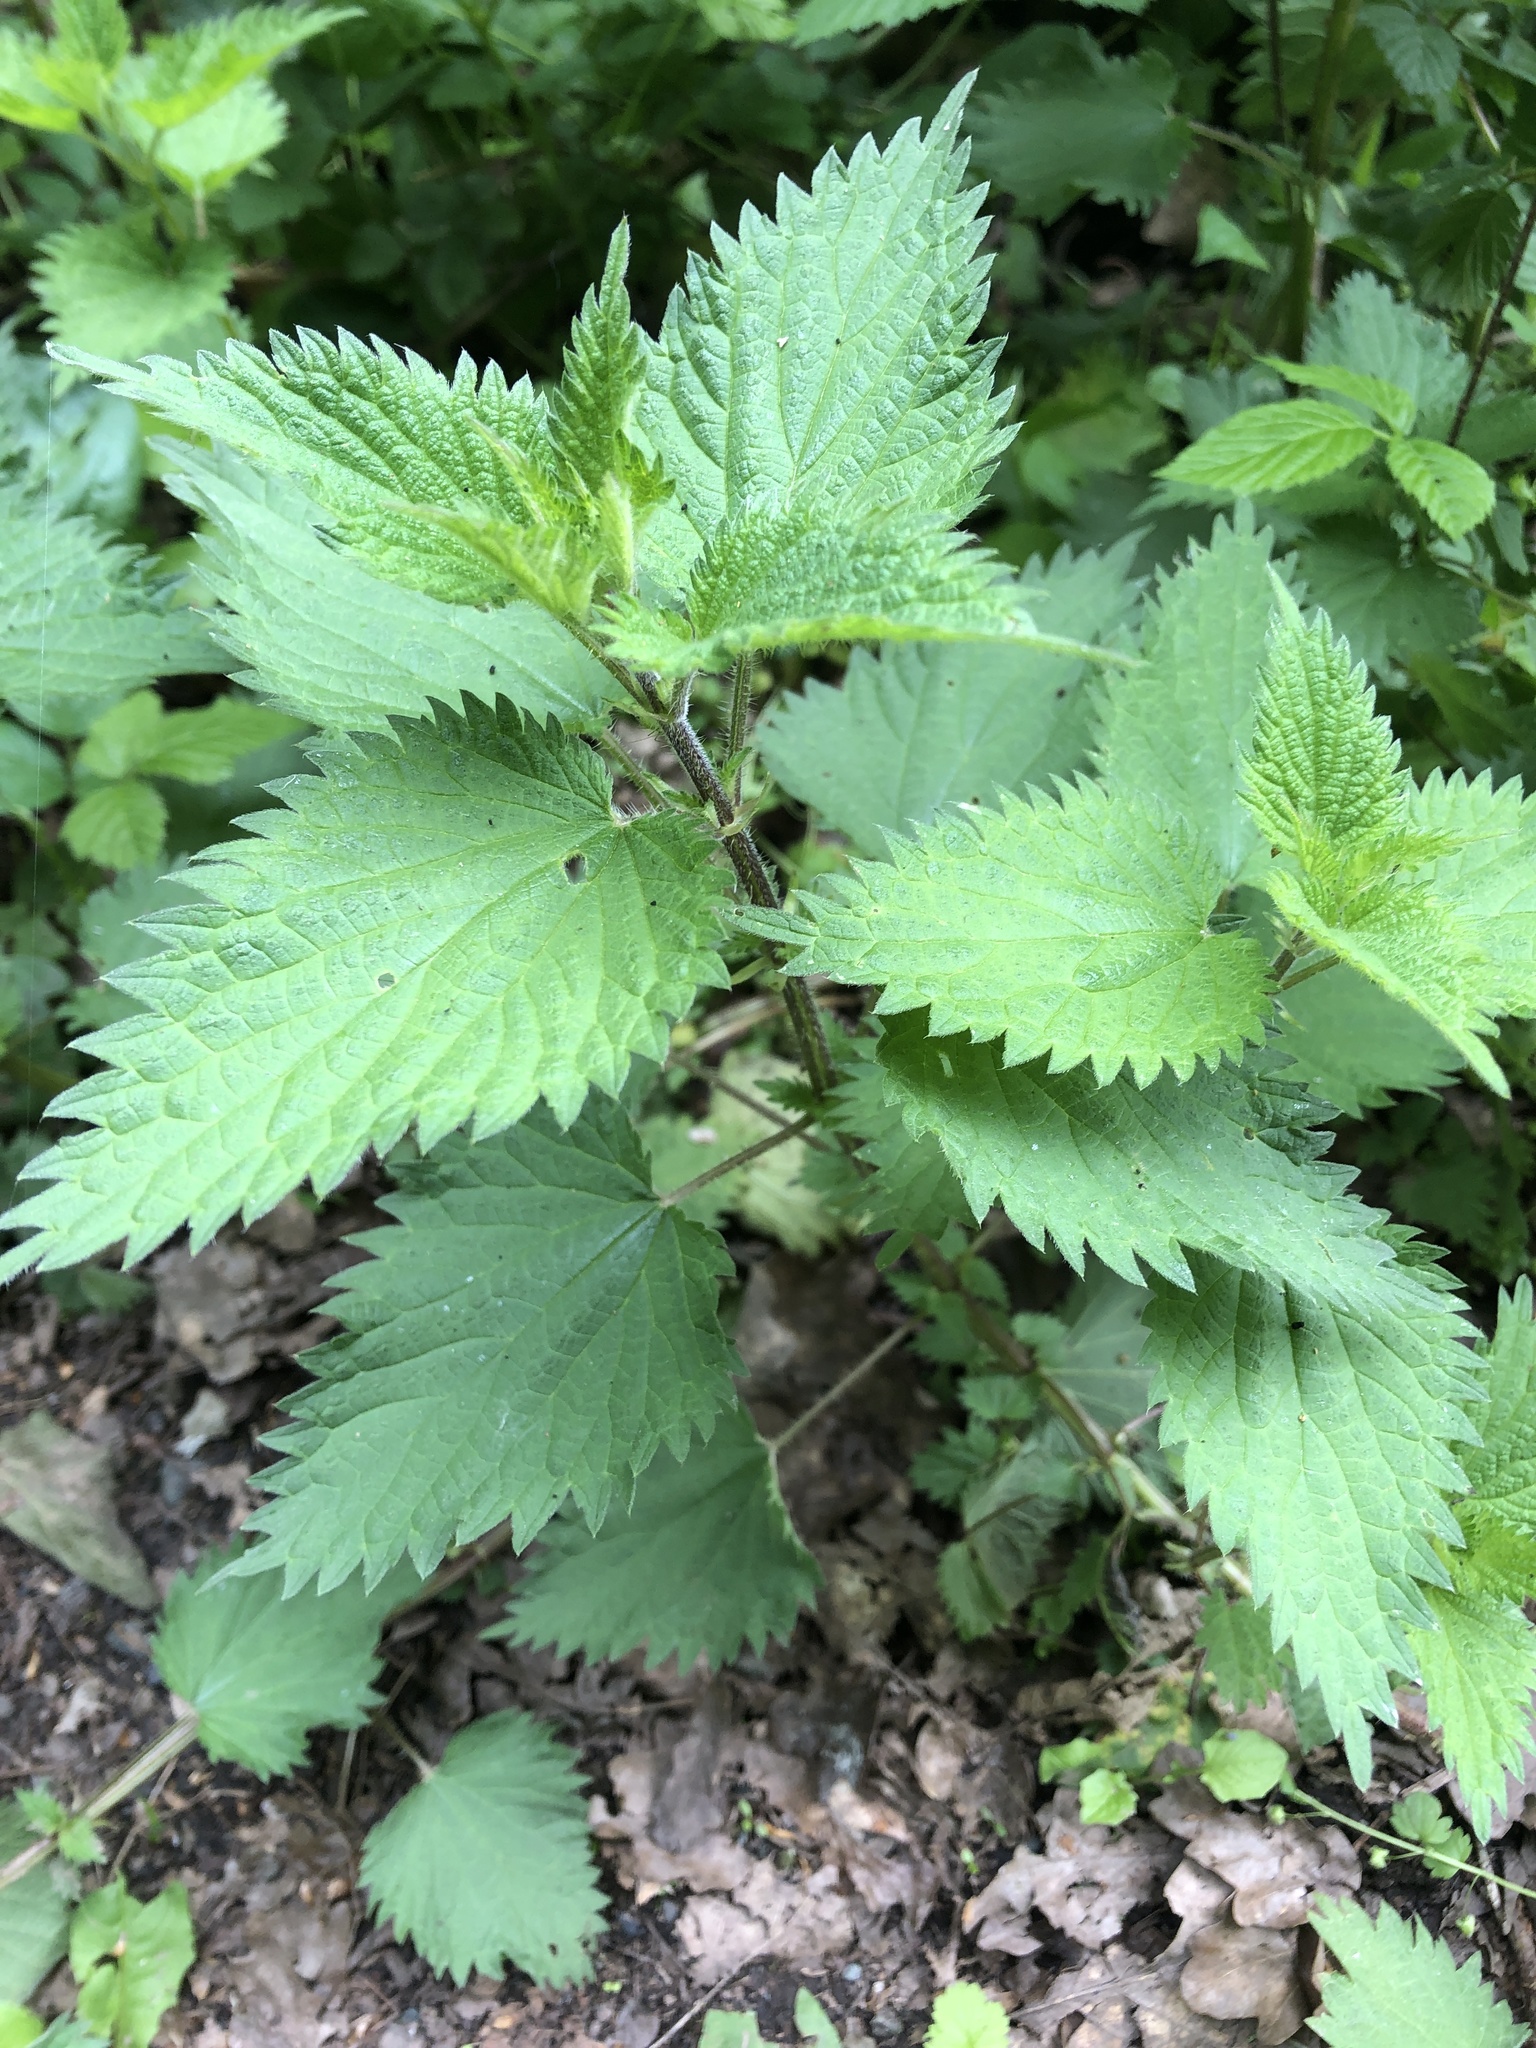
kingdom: Plantae
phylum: Tracheophyta
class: Magnoliopsida
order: Rosales
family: Urticaceae
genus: Urtica
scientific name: Urtica dioica
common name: Common nettle
